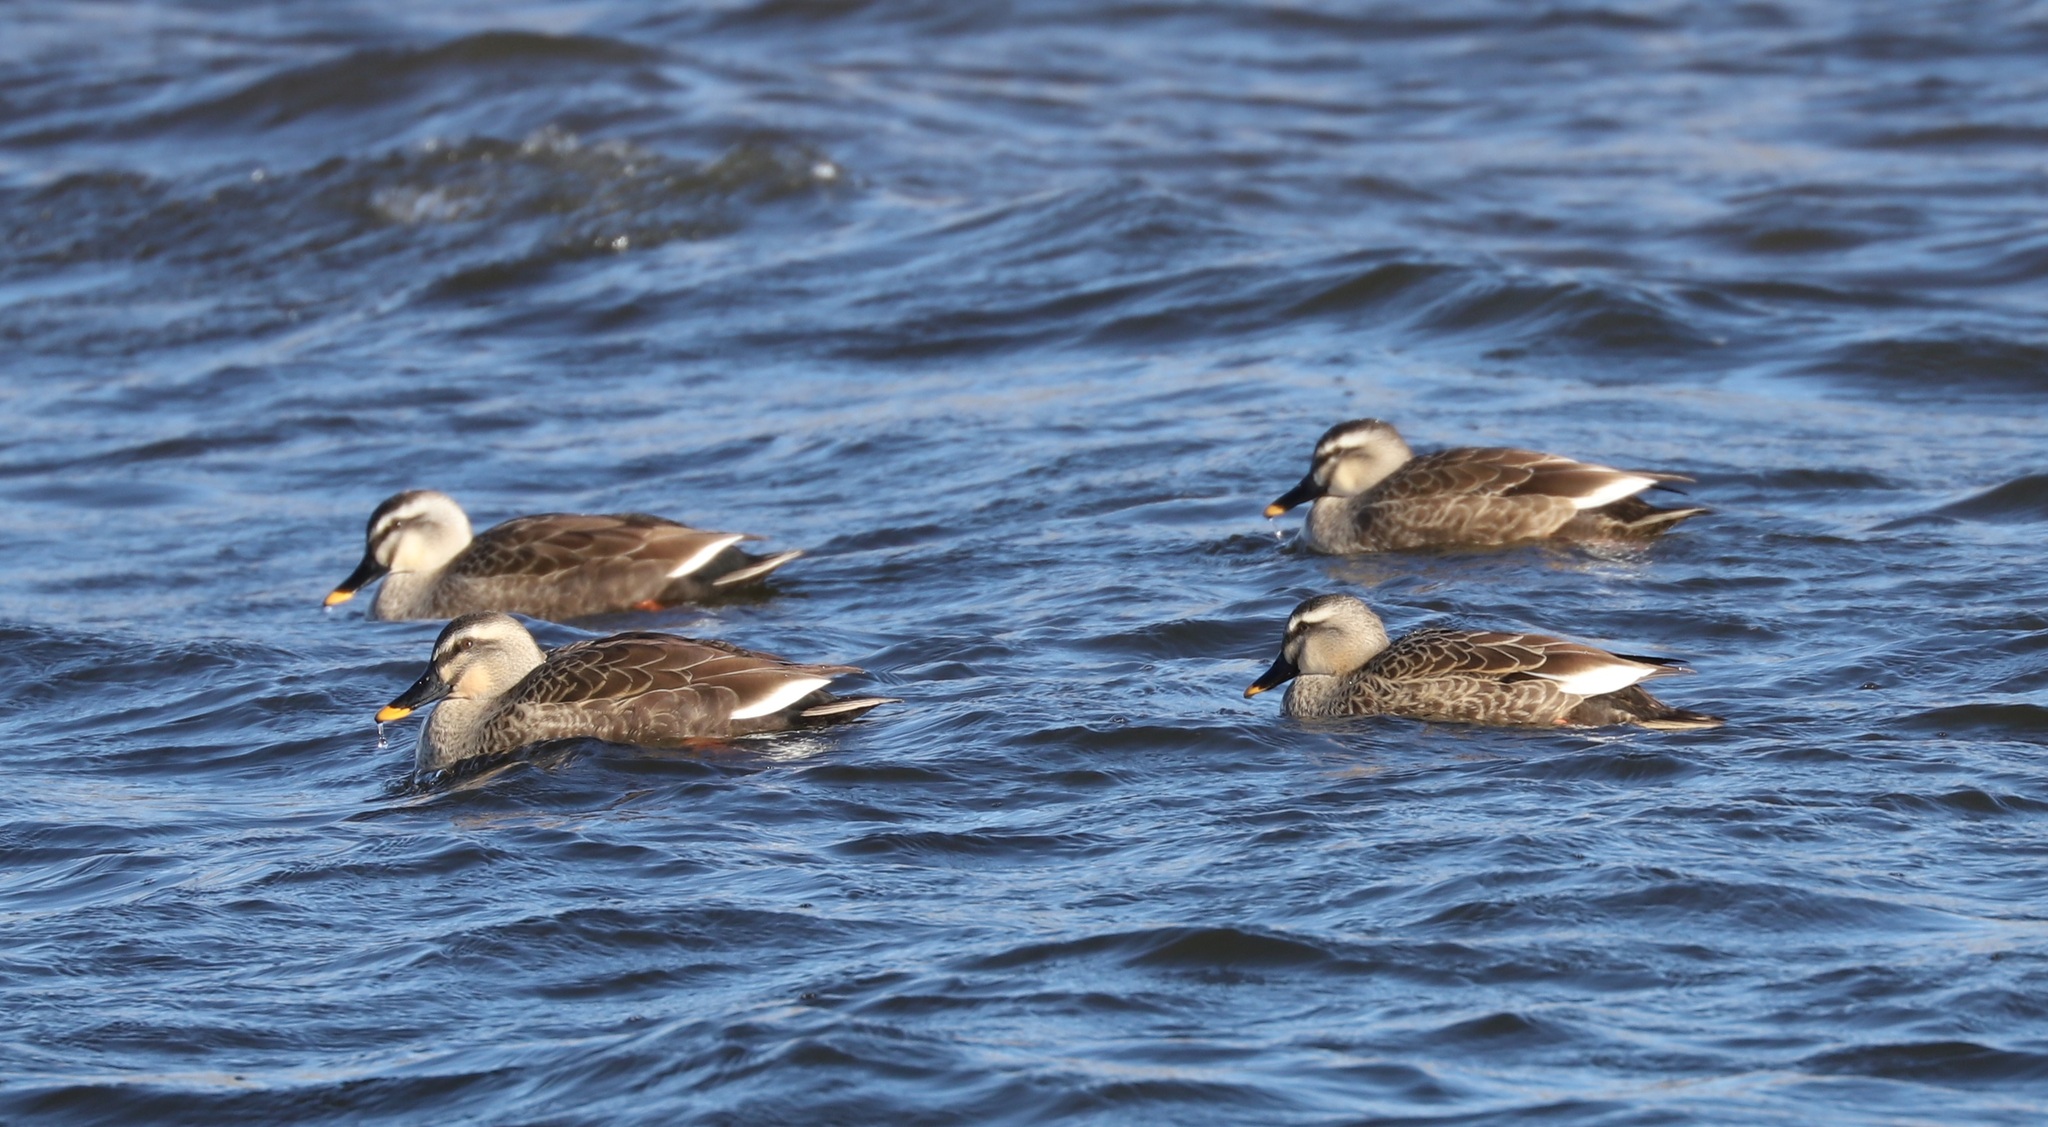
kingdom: Animalia
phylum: Chordata
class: Aves
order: Anseriformes
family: Anatidae
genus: Anas
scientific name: Anas zonorhyncha
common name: Eastern spot-billed duck
